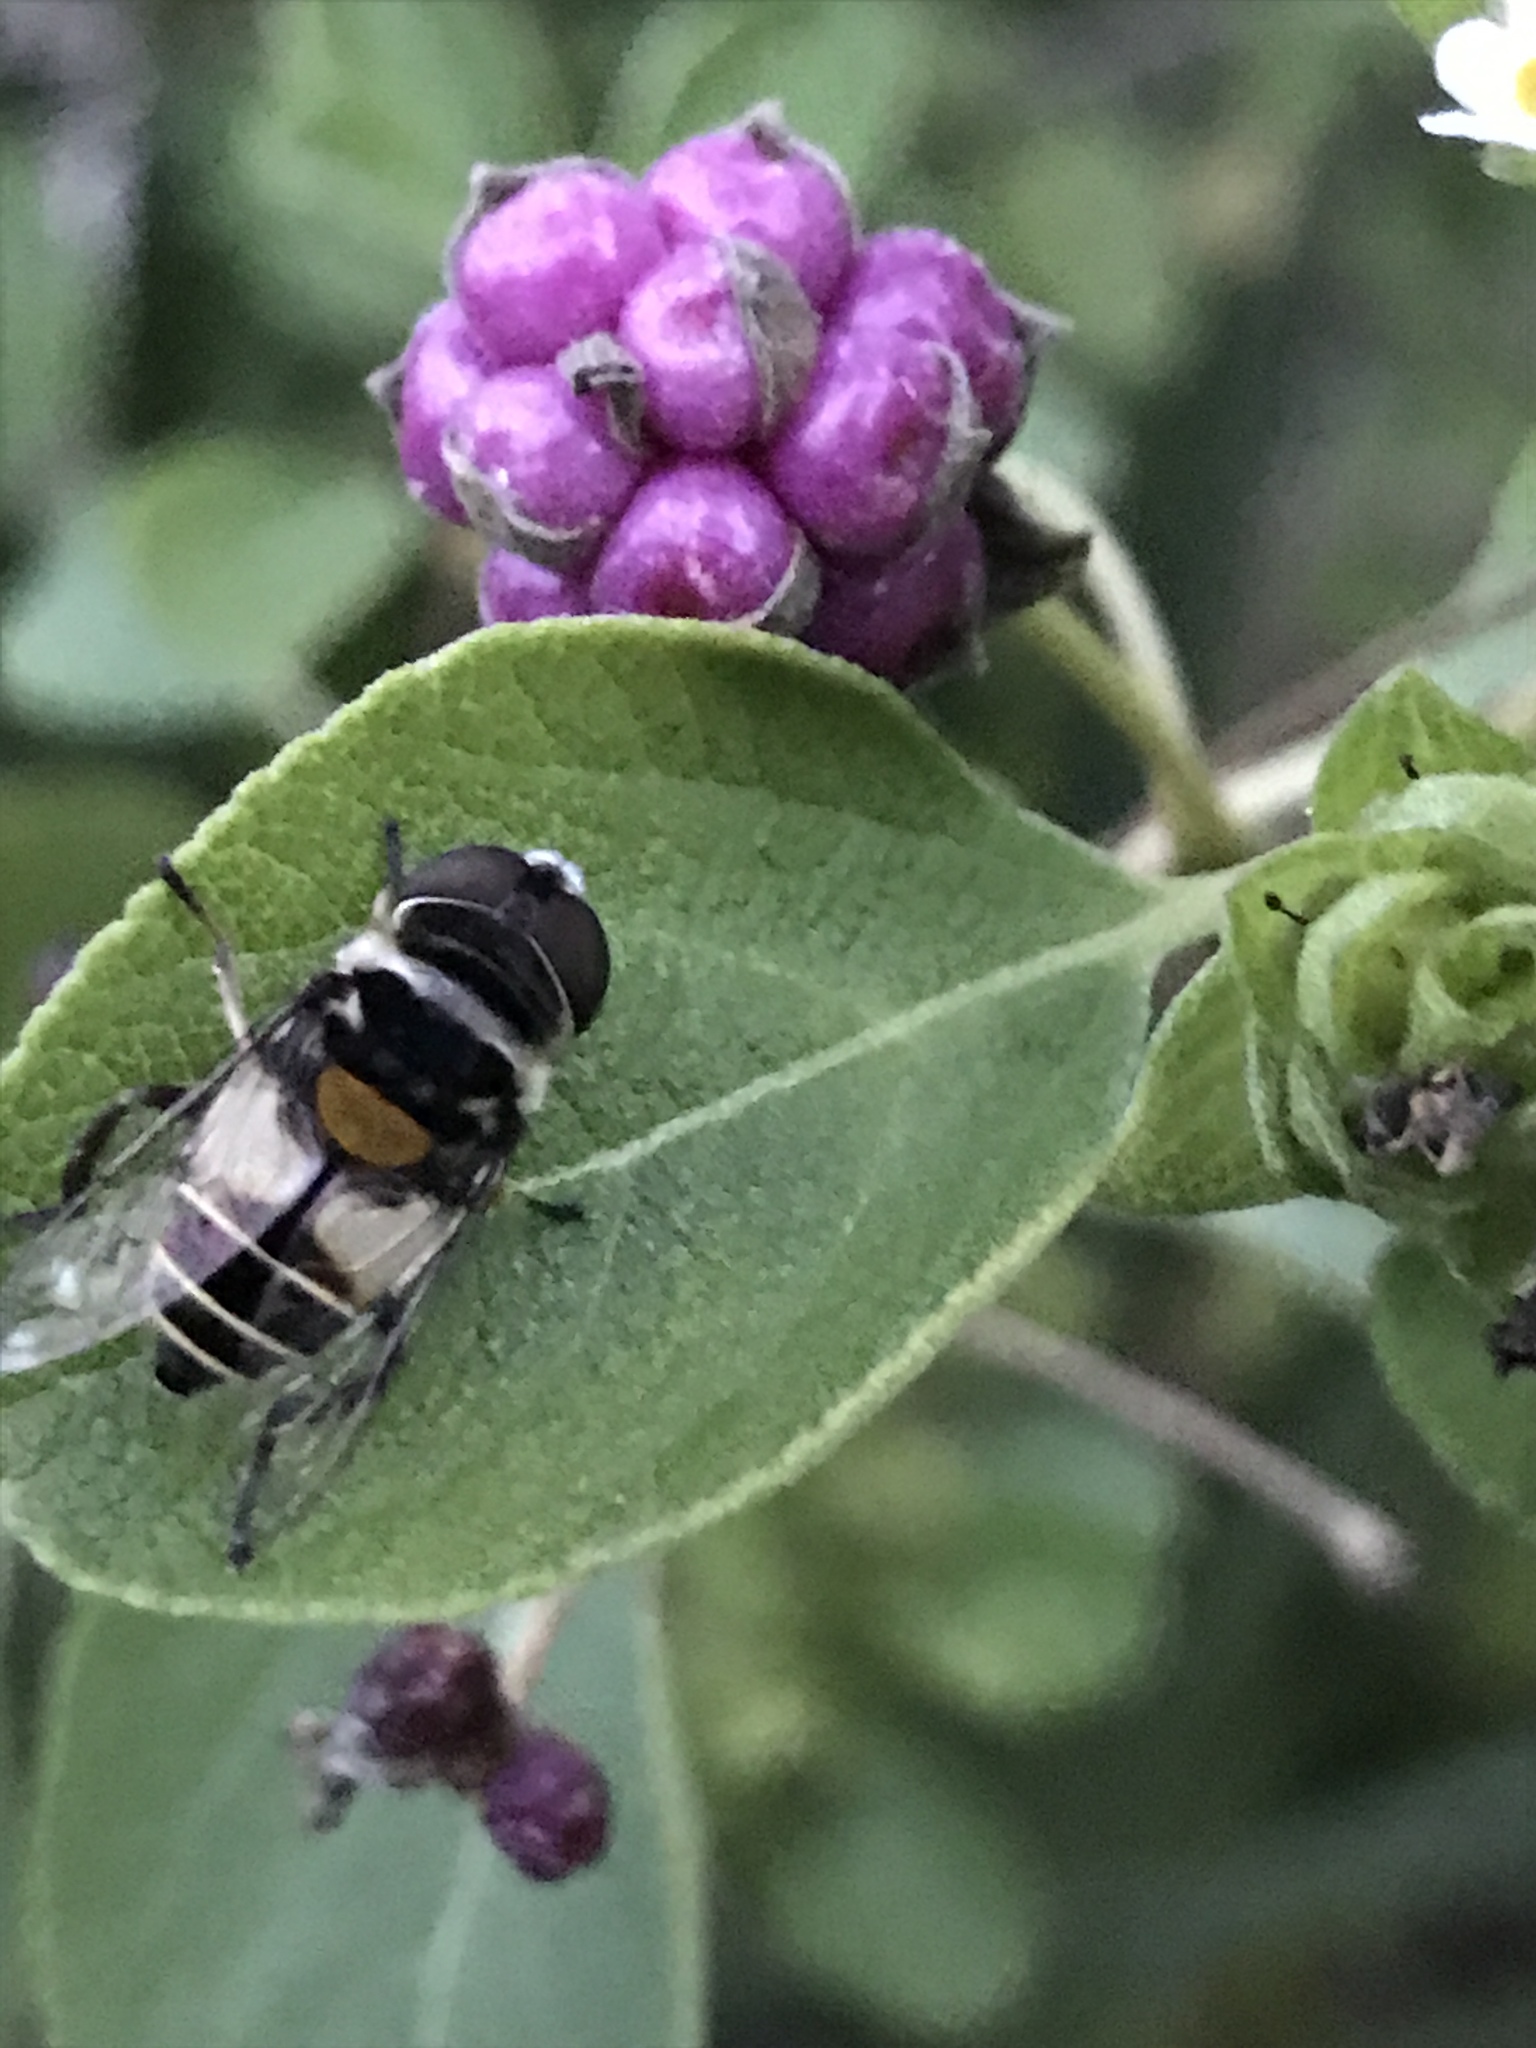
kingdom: Animalia
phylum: Arthropoda
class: Insecta
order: Diptera
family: Syrphidae
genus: Palpada
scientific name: Palpada albifrons
